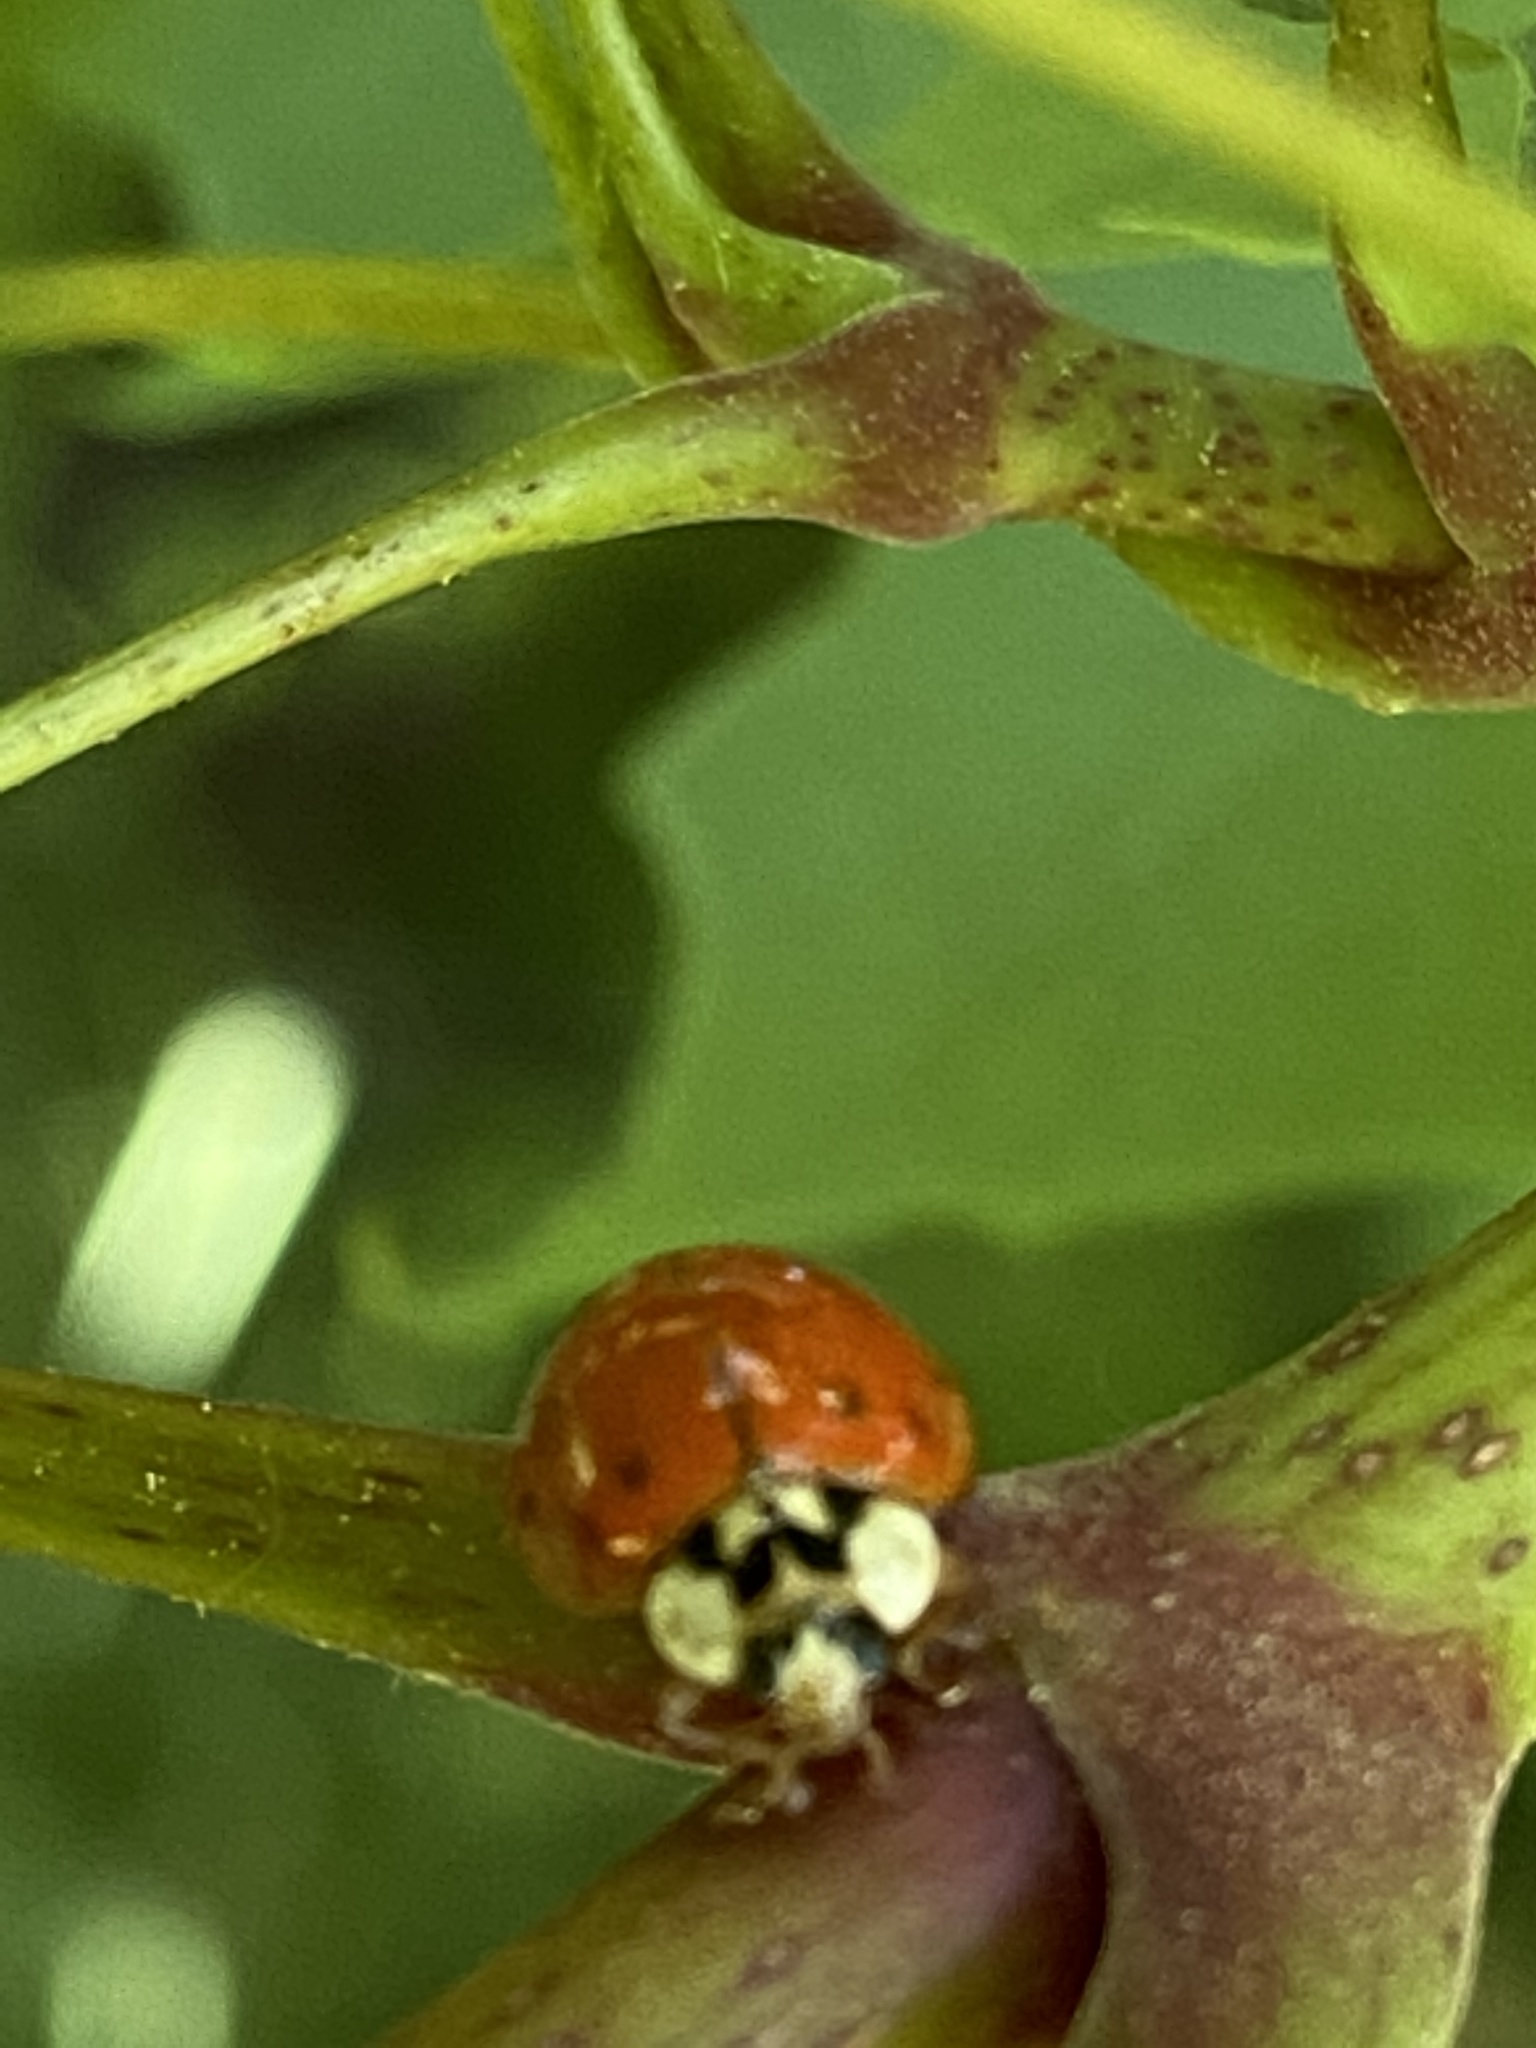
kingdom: Animalia
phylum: Arthropoda
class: Insecta
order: Coleoptera
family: Coccinellidae
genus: Harmonia
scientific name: Harmonia axyridis
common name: Harlequin ladybird
